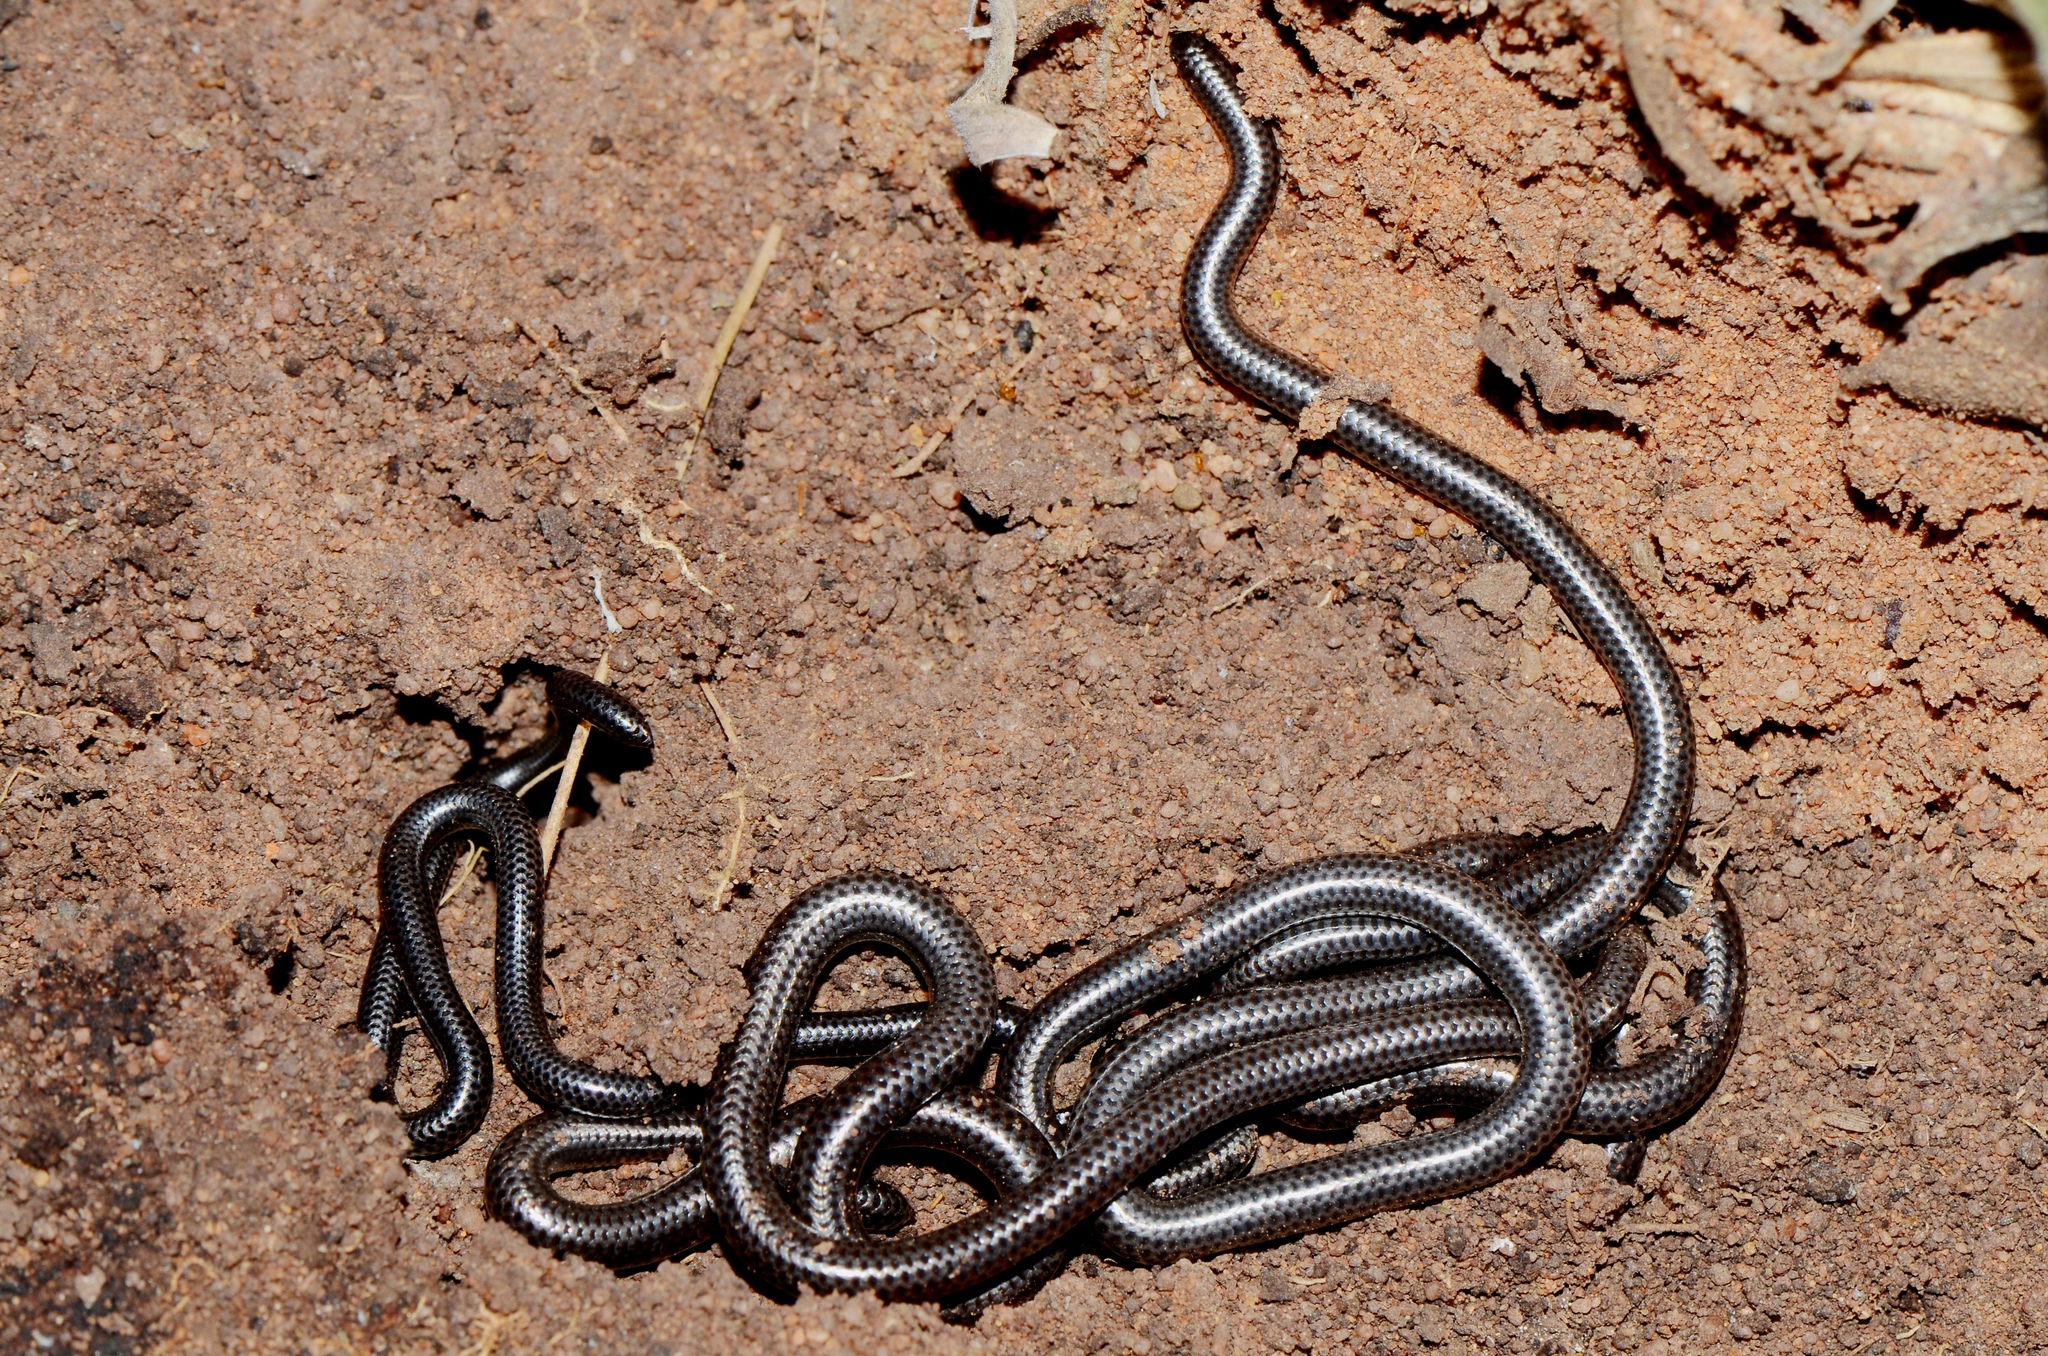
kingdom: Animalia
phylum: Chordata
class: Squamata
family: Leptotyphlopidae
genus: Leptotyphlops
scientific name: Leptotyphlops scutifrons
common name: Peter's thread snake
